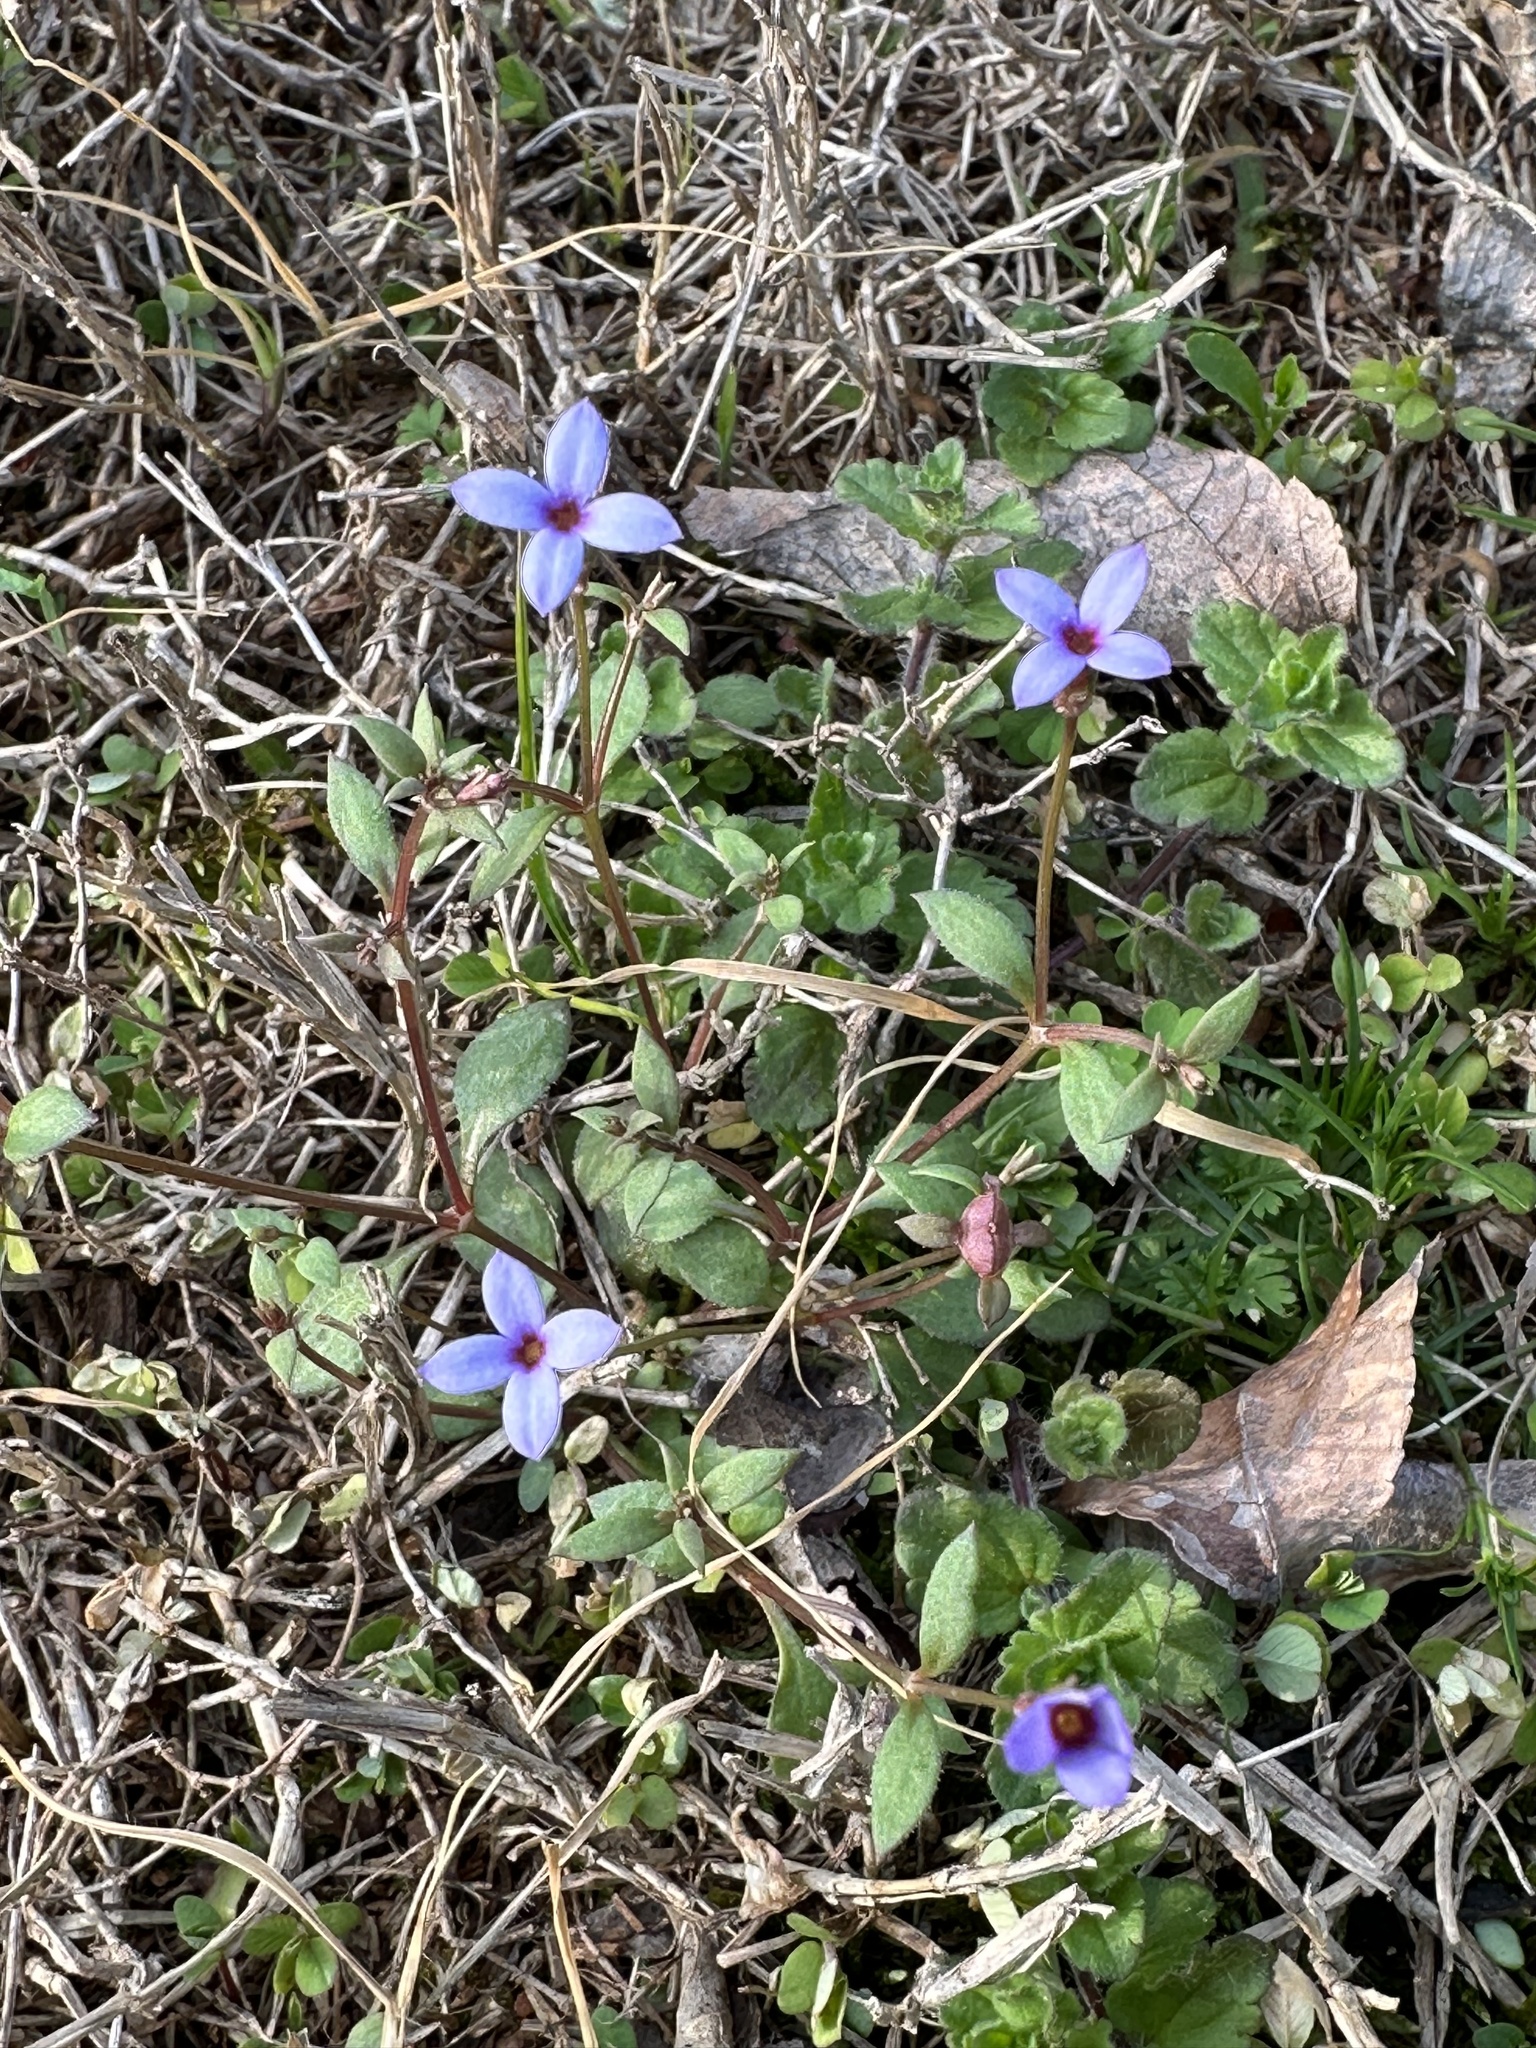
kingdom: Plantae
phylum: Tracheophyta
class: Magnoliopsida
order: Gentianales
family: Rubiaceae
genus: Houstonia
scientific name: Houstonia pusilla
